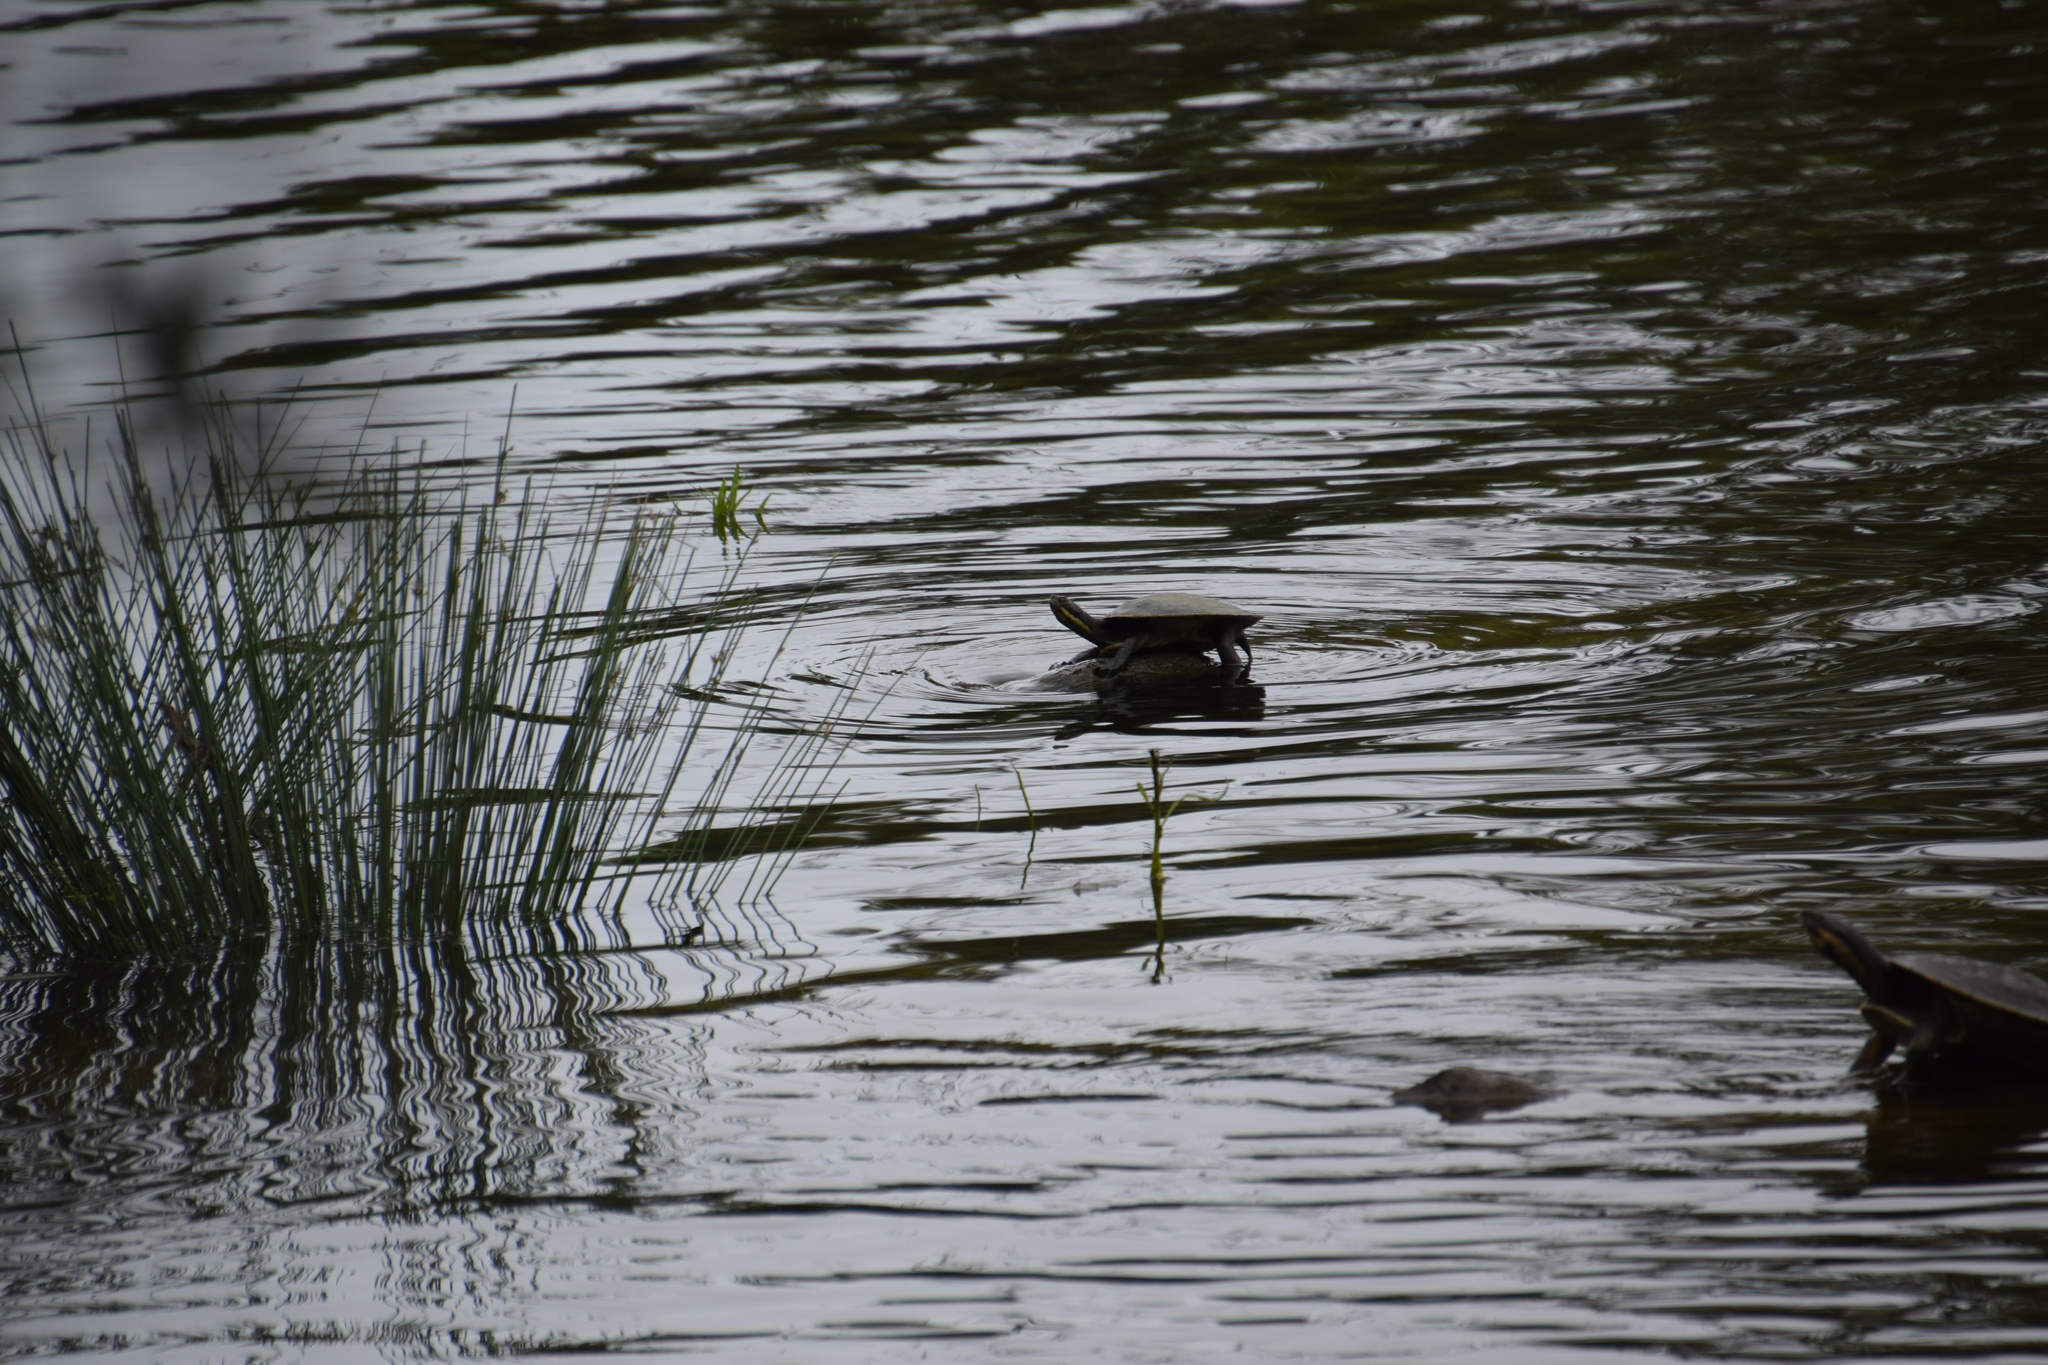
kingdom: Animalia
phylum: Chordata
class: Testudines
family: Chelidae
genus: Emydura
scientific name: Emydura macquarii
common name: Murray river turtle
